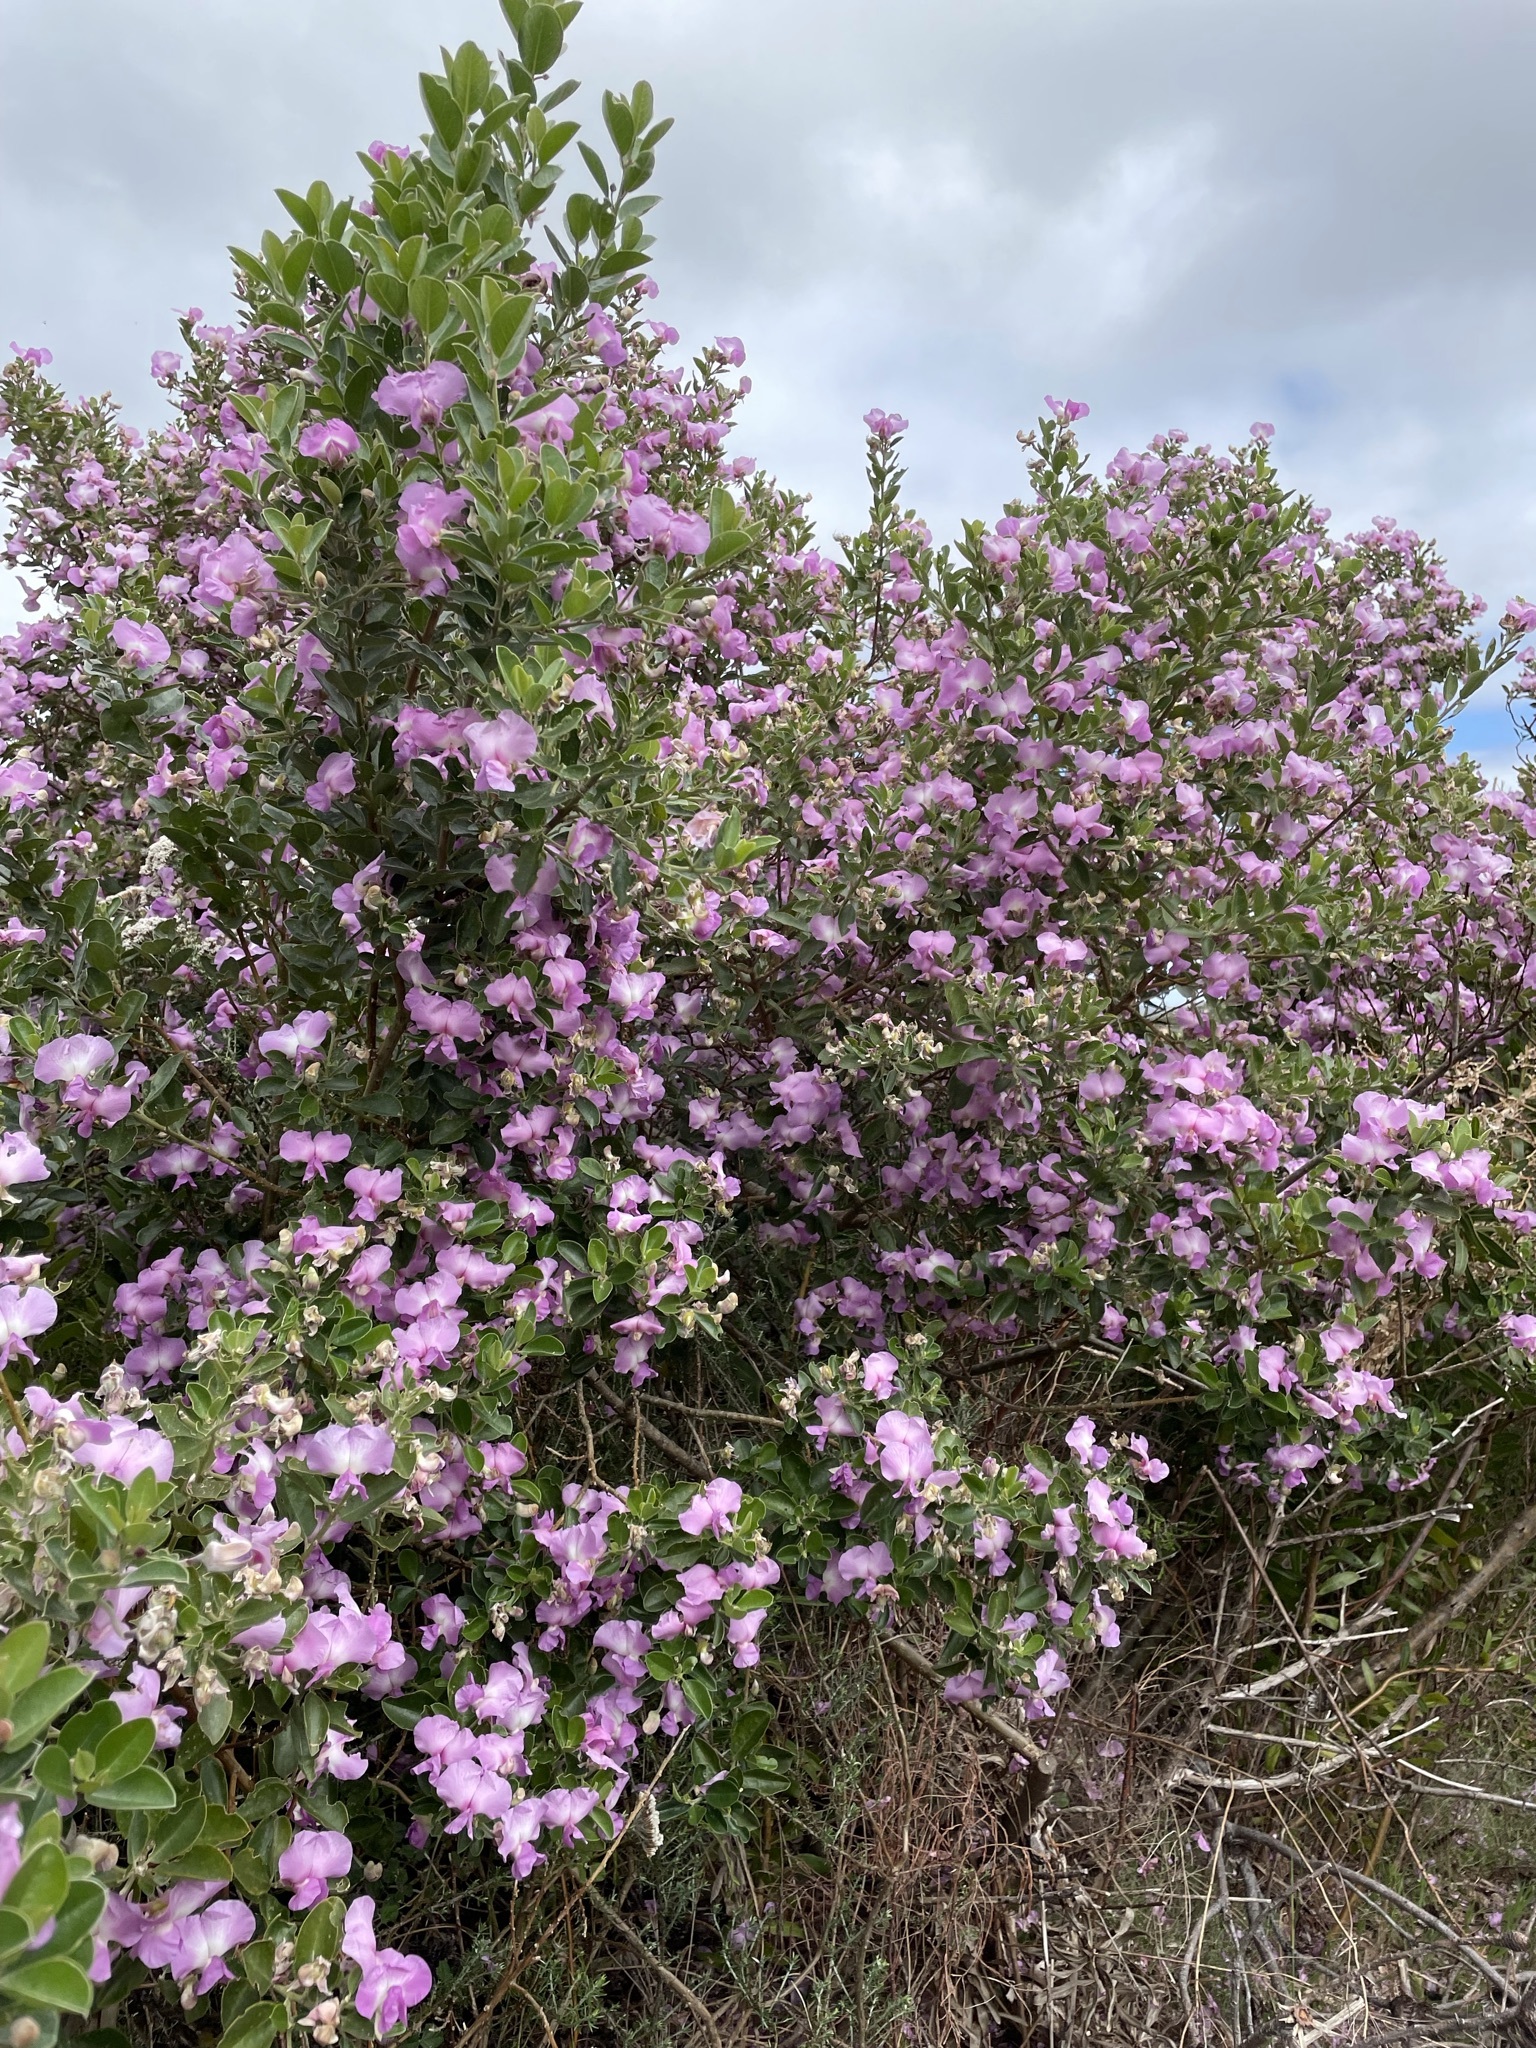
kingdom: Plantae
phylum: Tracheophyta
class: Magnoliopsida
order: Fabales
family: Fabaceae
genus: Podalyria
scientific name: Podalyria calyptrata
